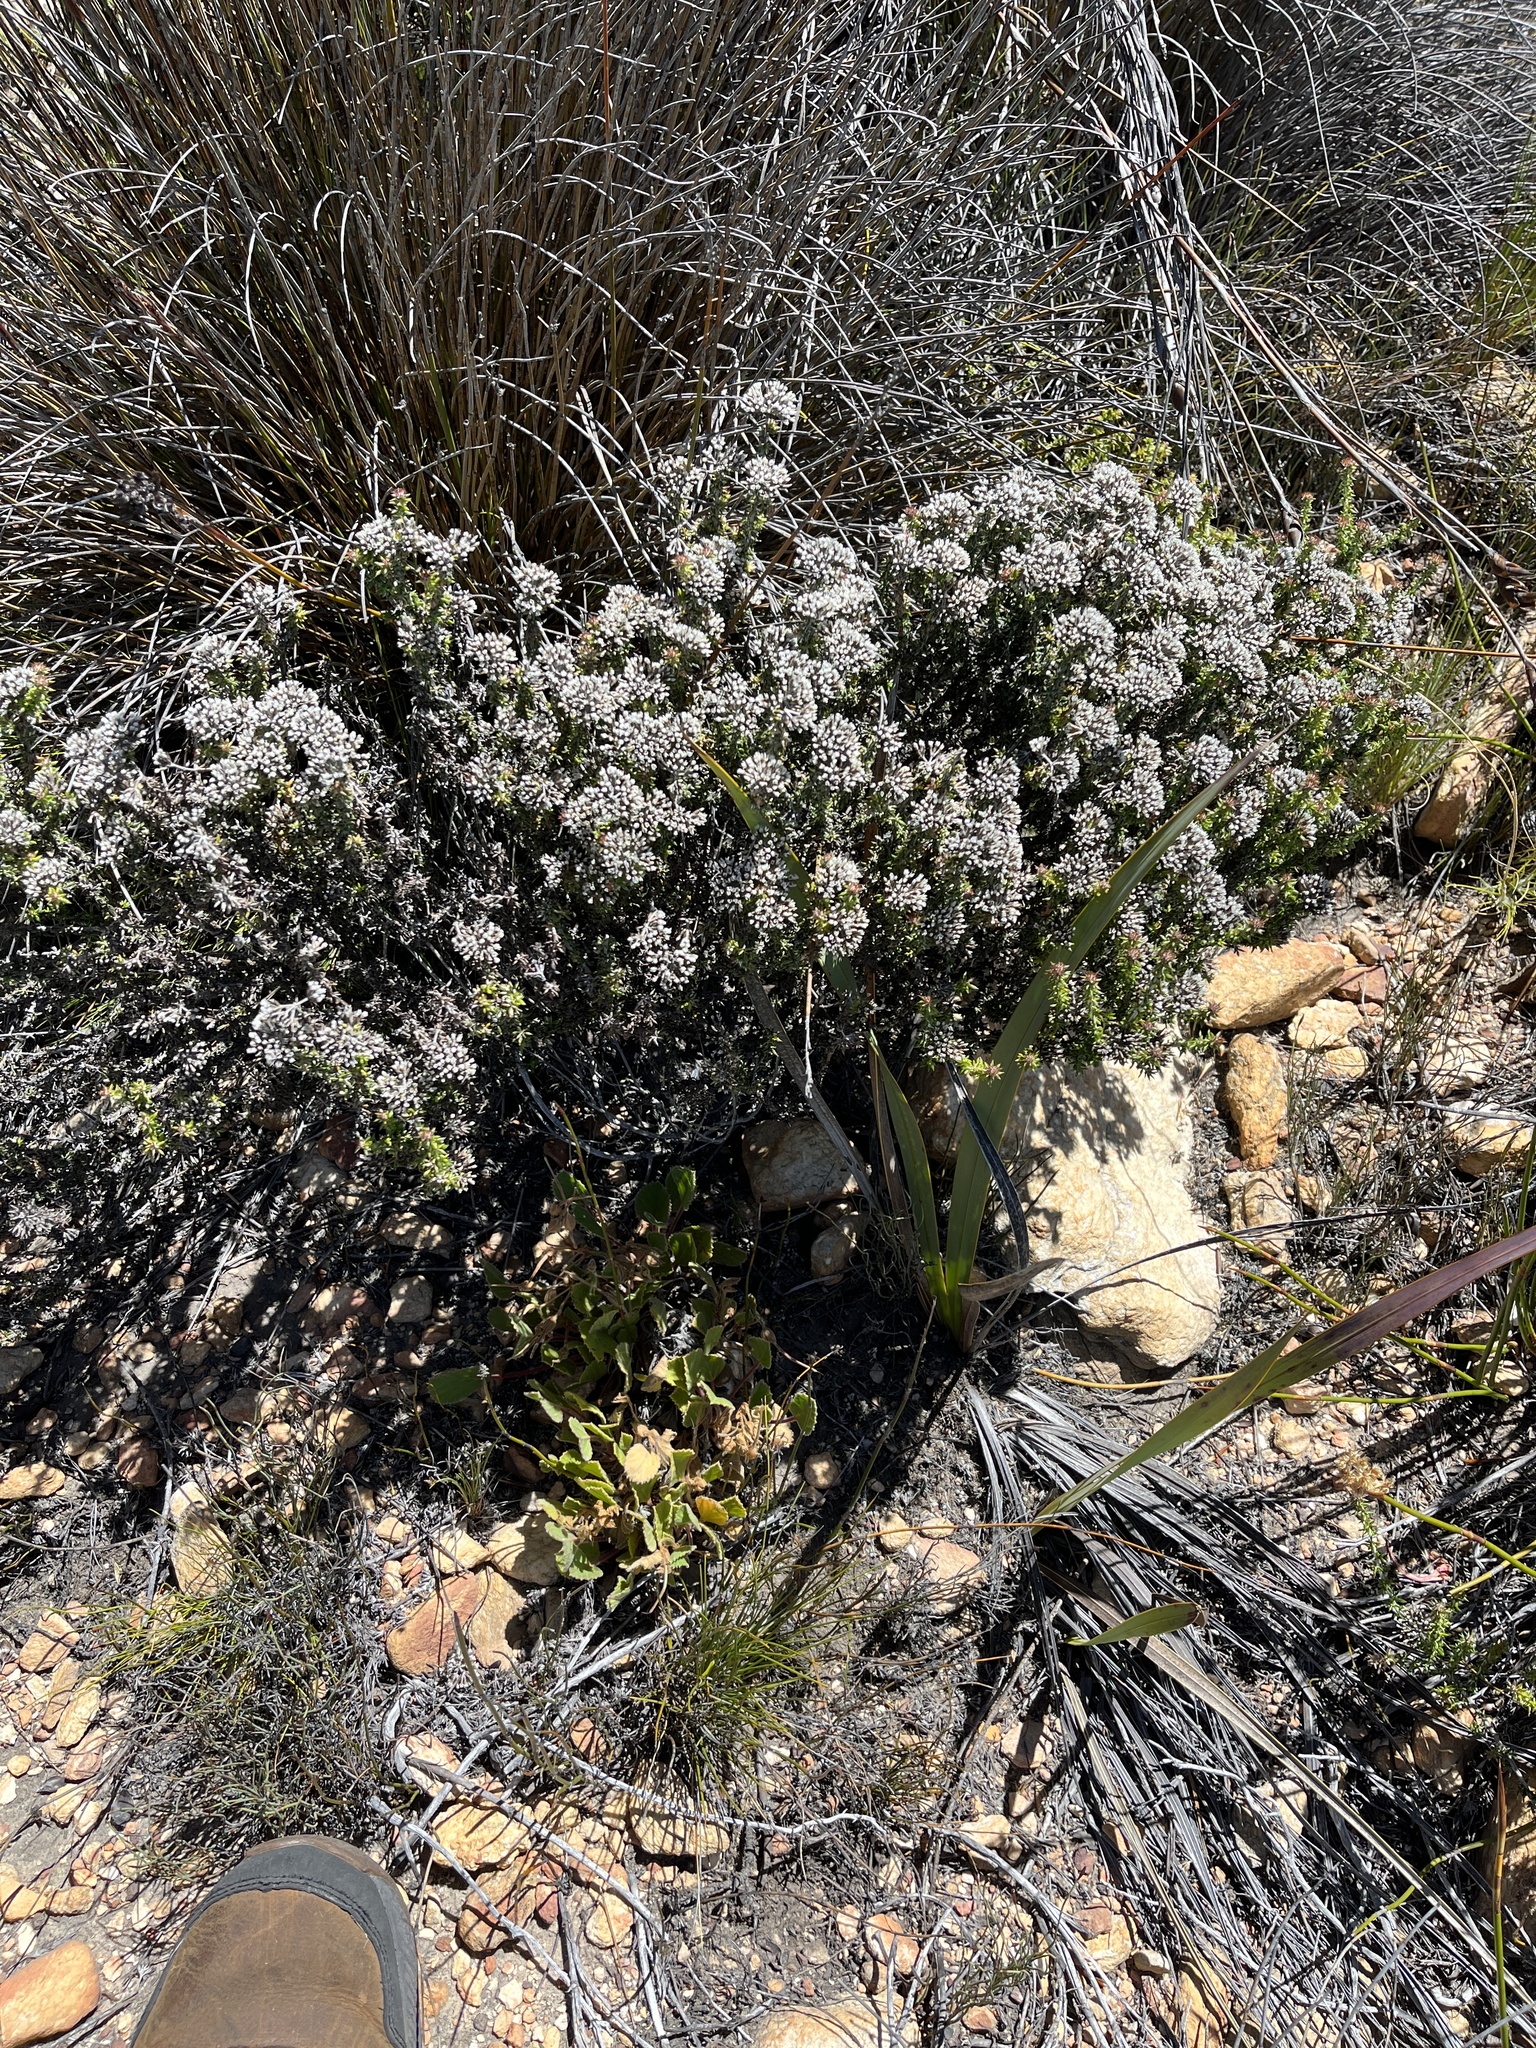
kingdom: Plantae
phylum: Tracheophyta
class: Magnoliopsida
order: Asterales
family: Asteraceae
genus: Metalasia
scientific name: Metalasia densa
